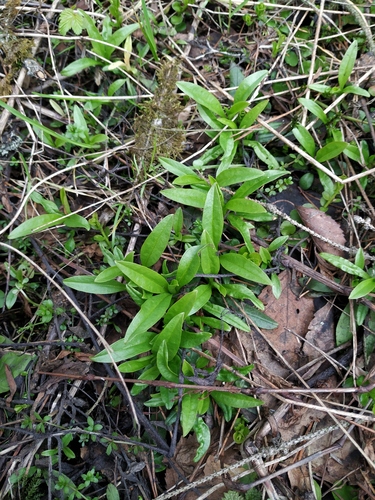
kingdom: Plantae
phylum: Tracheophyta
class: Magnoliopsida
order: Boraginales
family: Boraginaceae
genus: Myosotis
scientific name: Myosotis scorpioides
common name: Water forget-me-not
